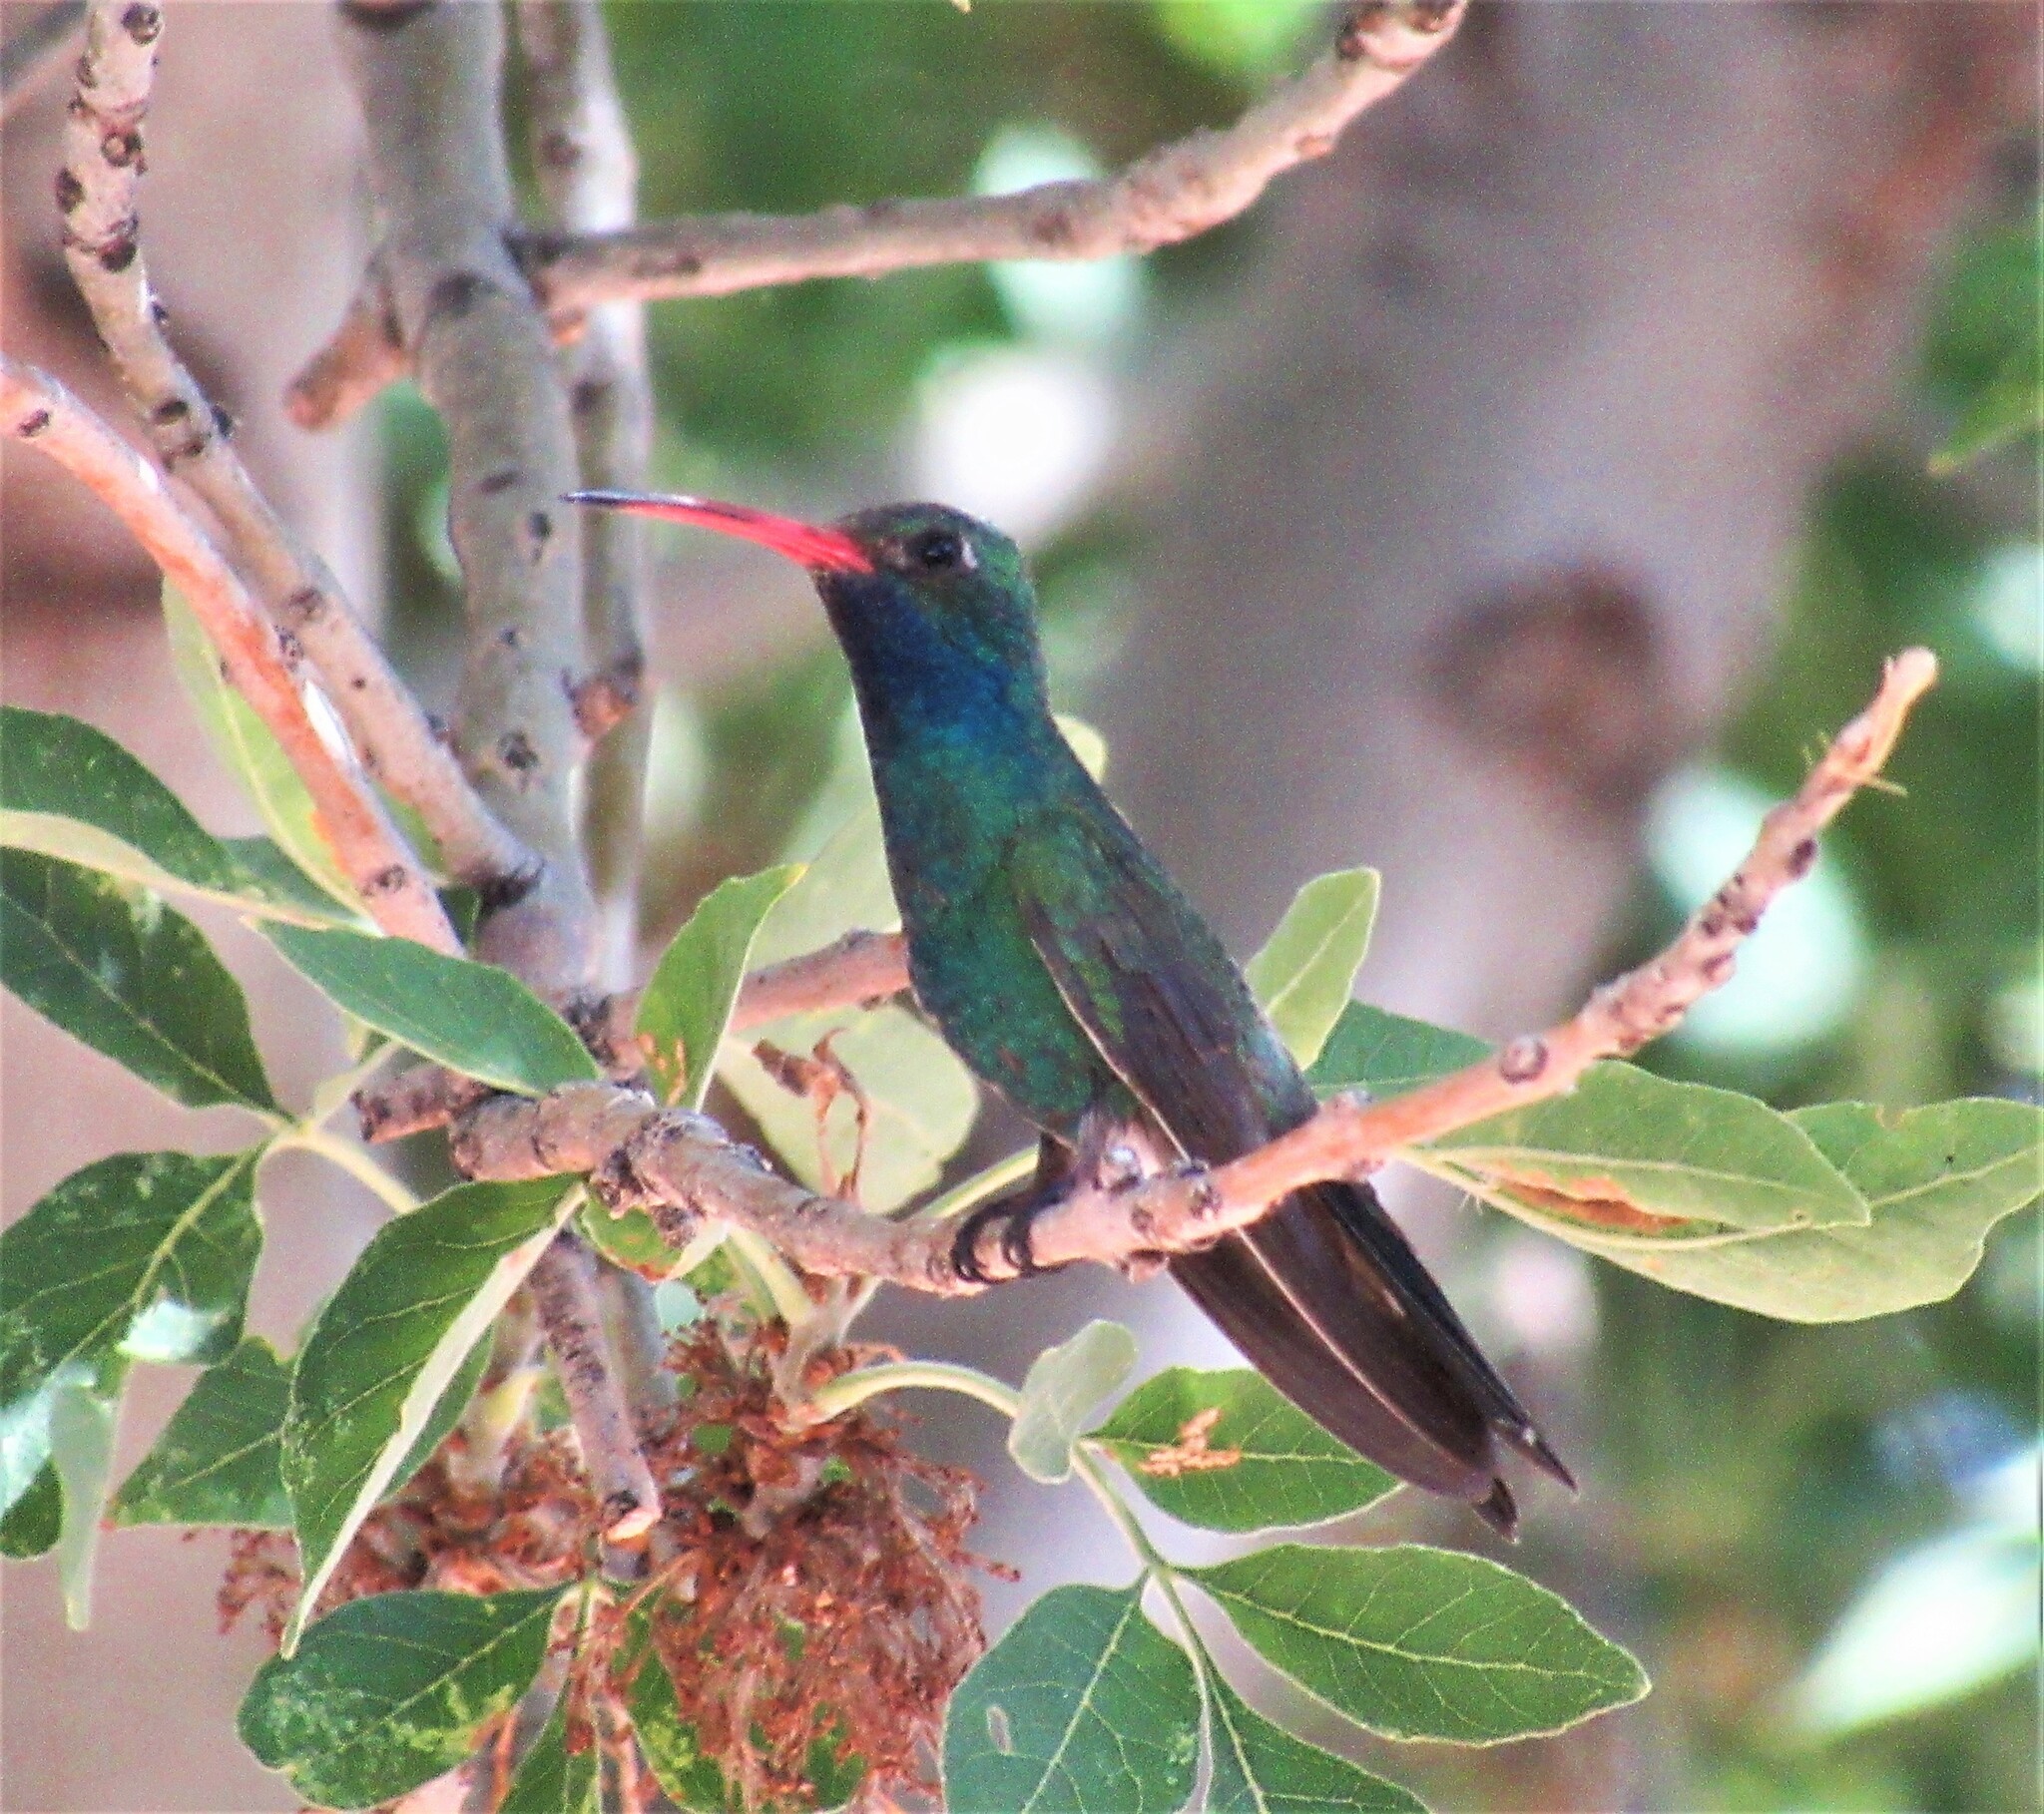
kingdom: Animalia
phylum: Chordata
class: Aves
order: Apodiformes
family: Trochilidae
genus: Cynanthus
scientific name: Cynanthus latirostris
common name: Broad-billed hummingbird
